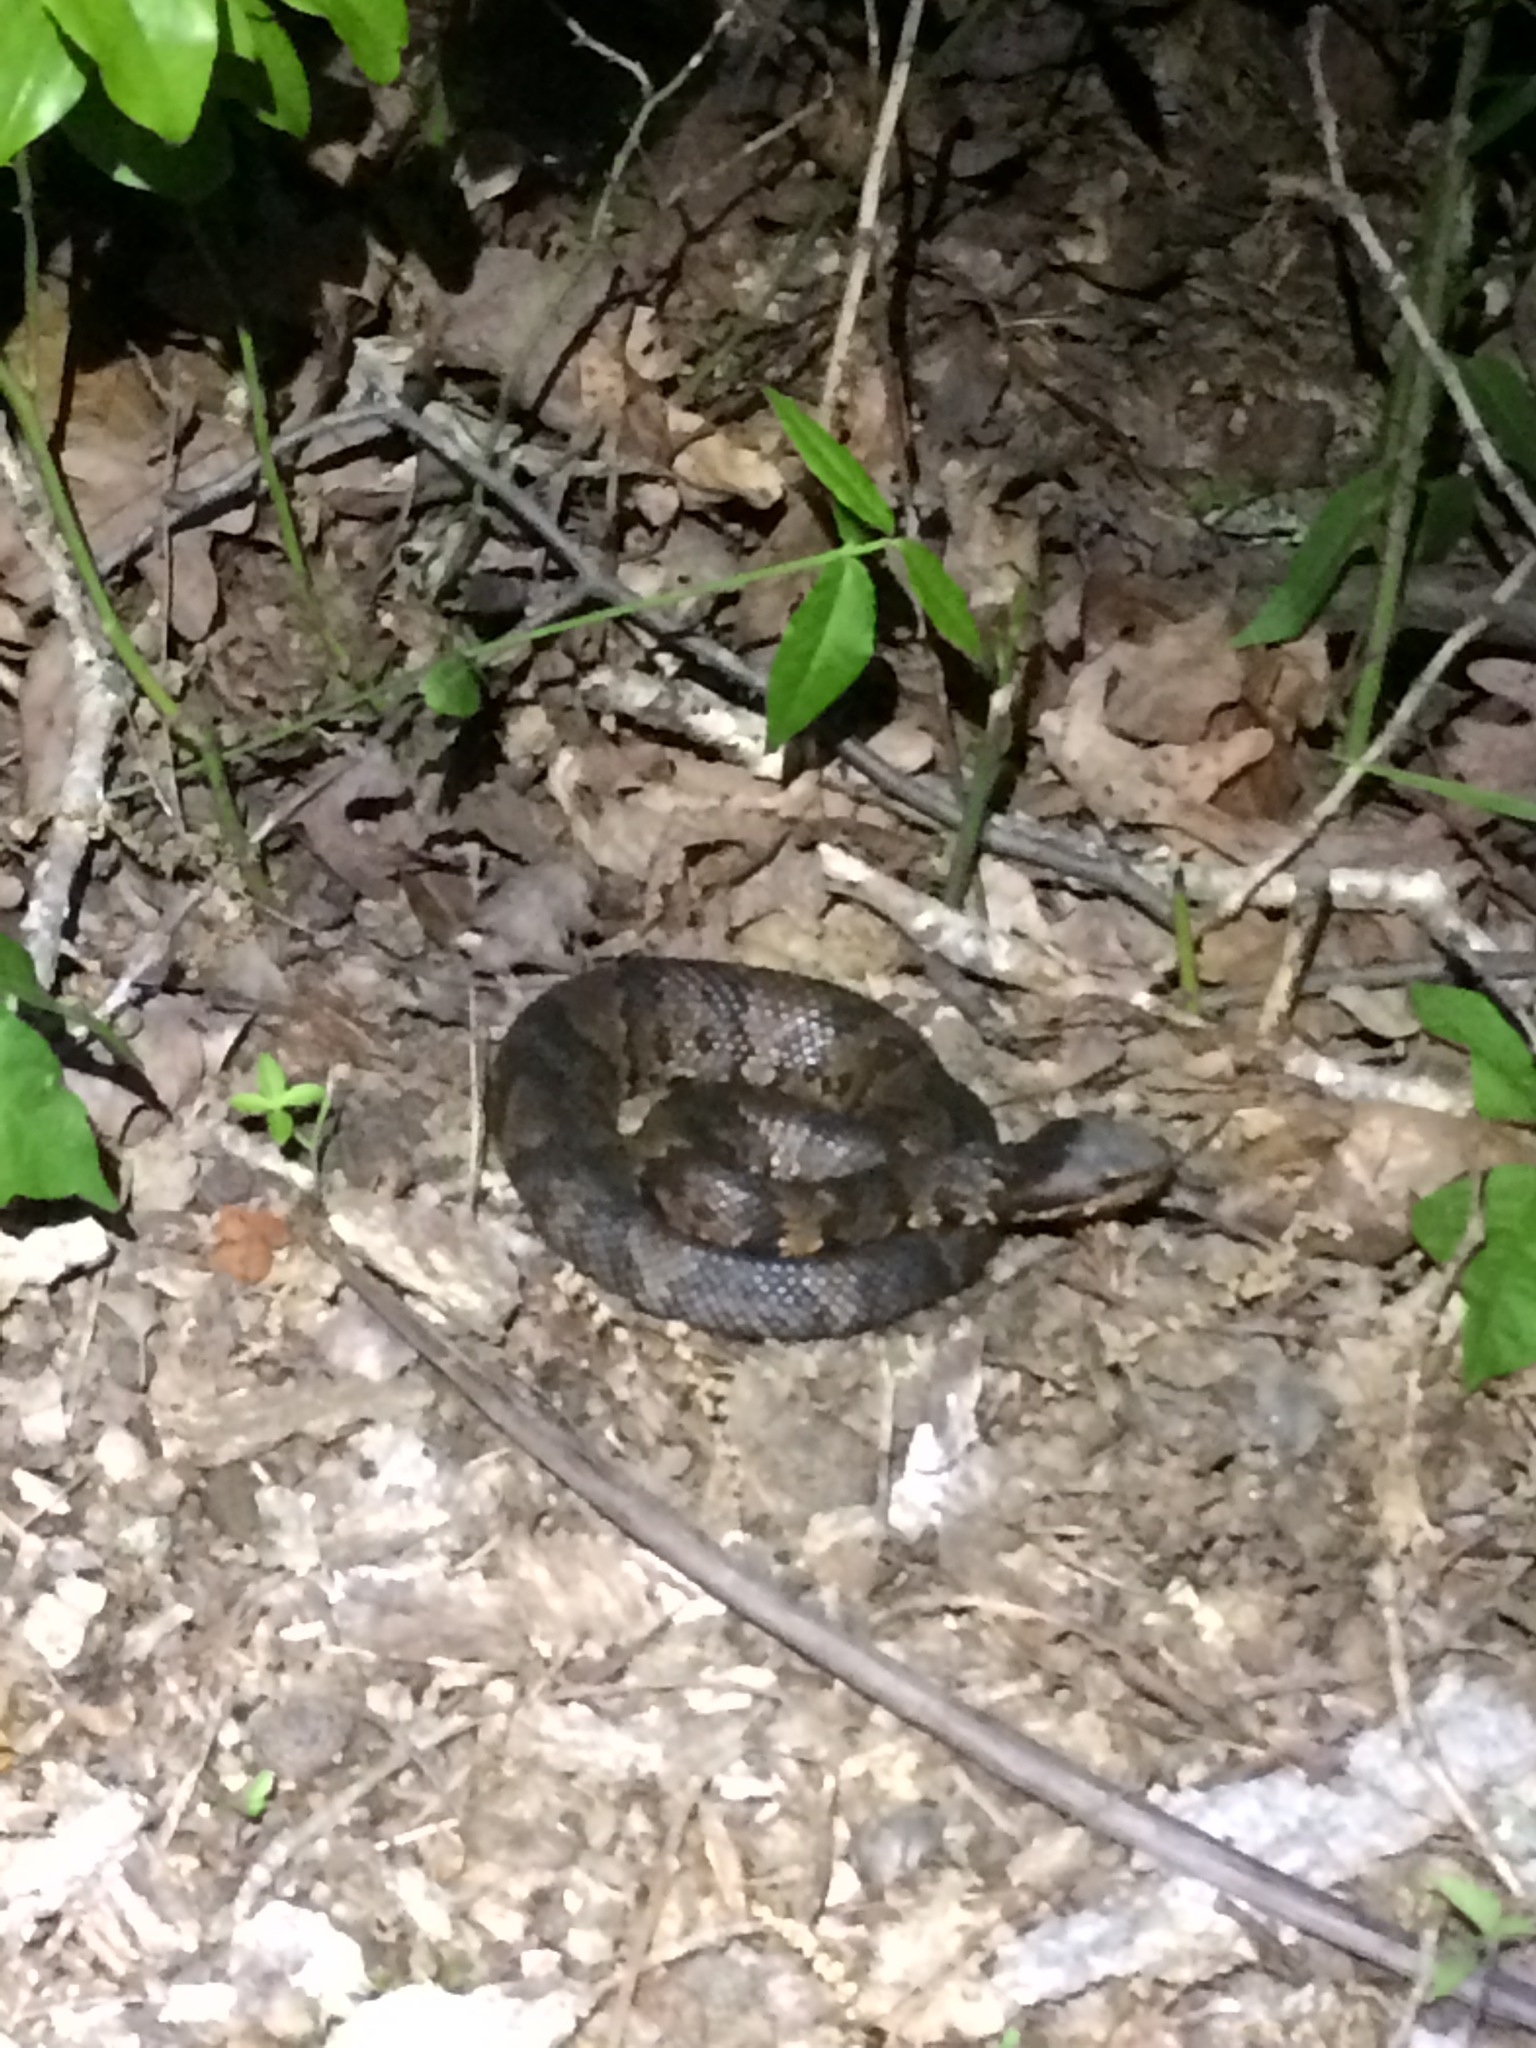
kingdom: Animalia
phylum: Chordata
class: Squamata
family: Viperidae
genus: Agkistrodon
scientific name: Agkistrodon piscivorus
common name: Cottonmouth
